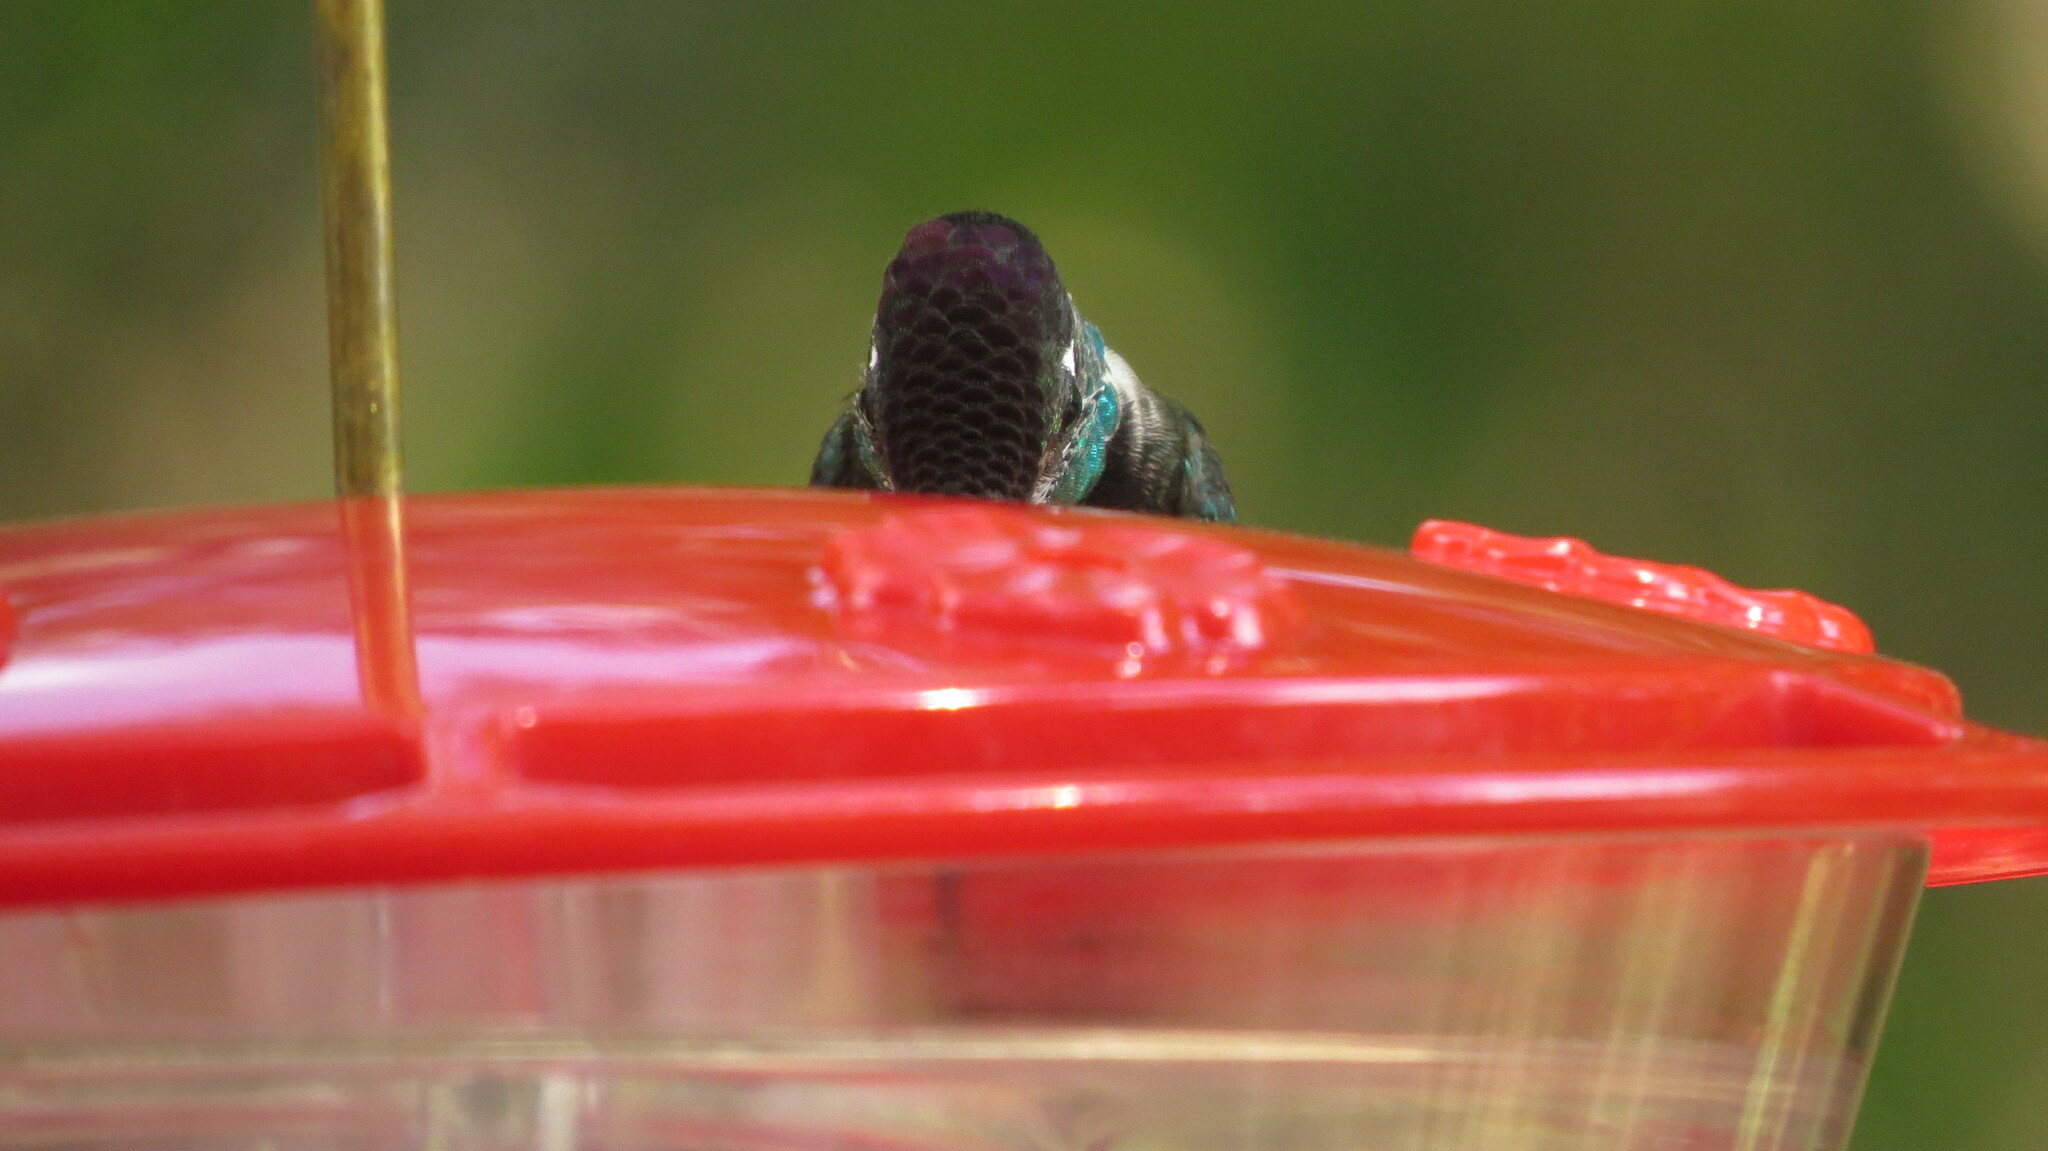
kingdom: Animalia
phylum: Chordata
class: Aves
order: Apodiformes
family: Trochilidae
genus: Eugenes
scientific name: Eugenes fulgens
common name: Magnificent hummingbird
